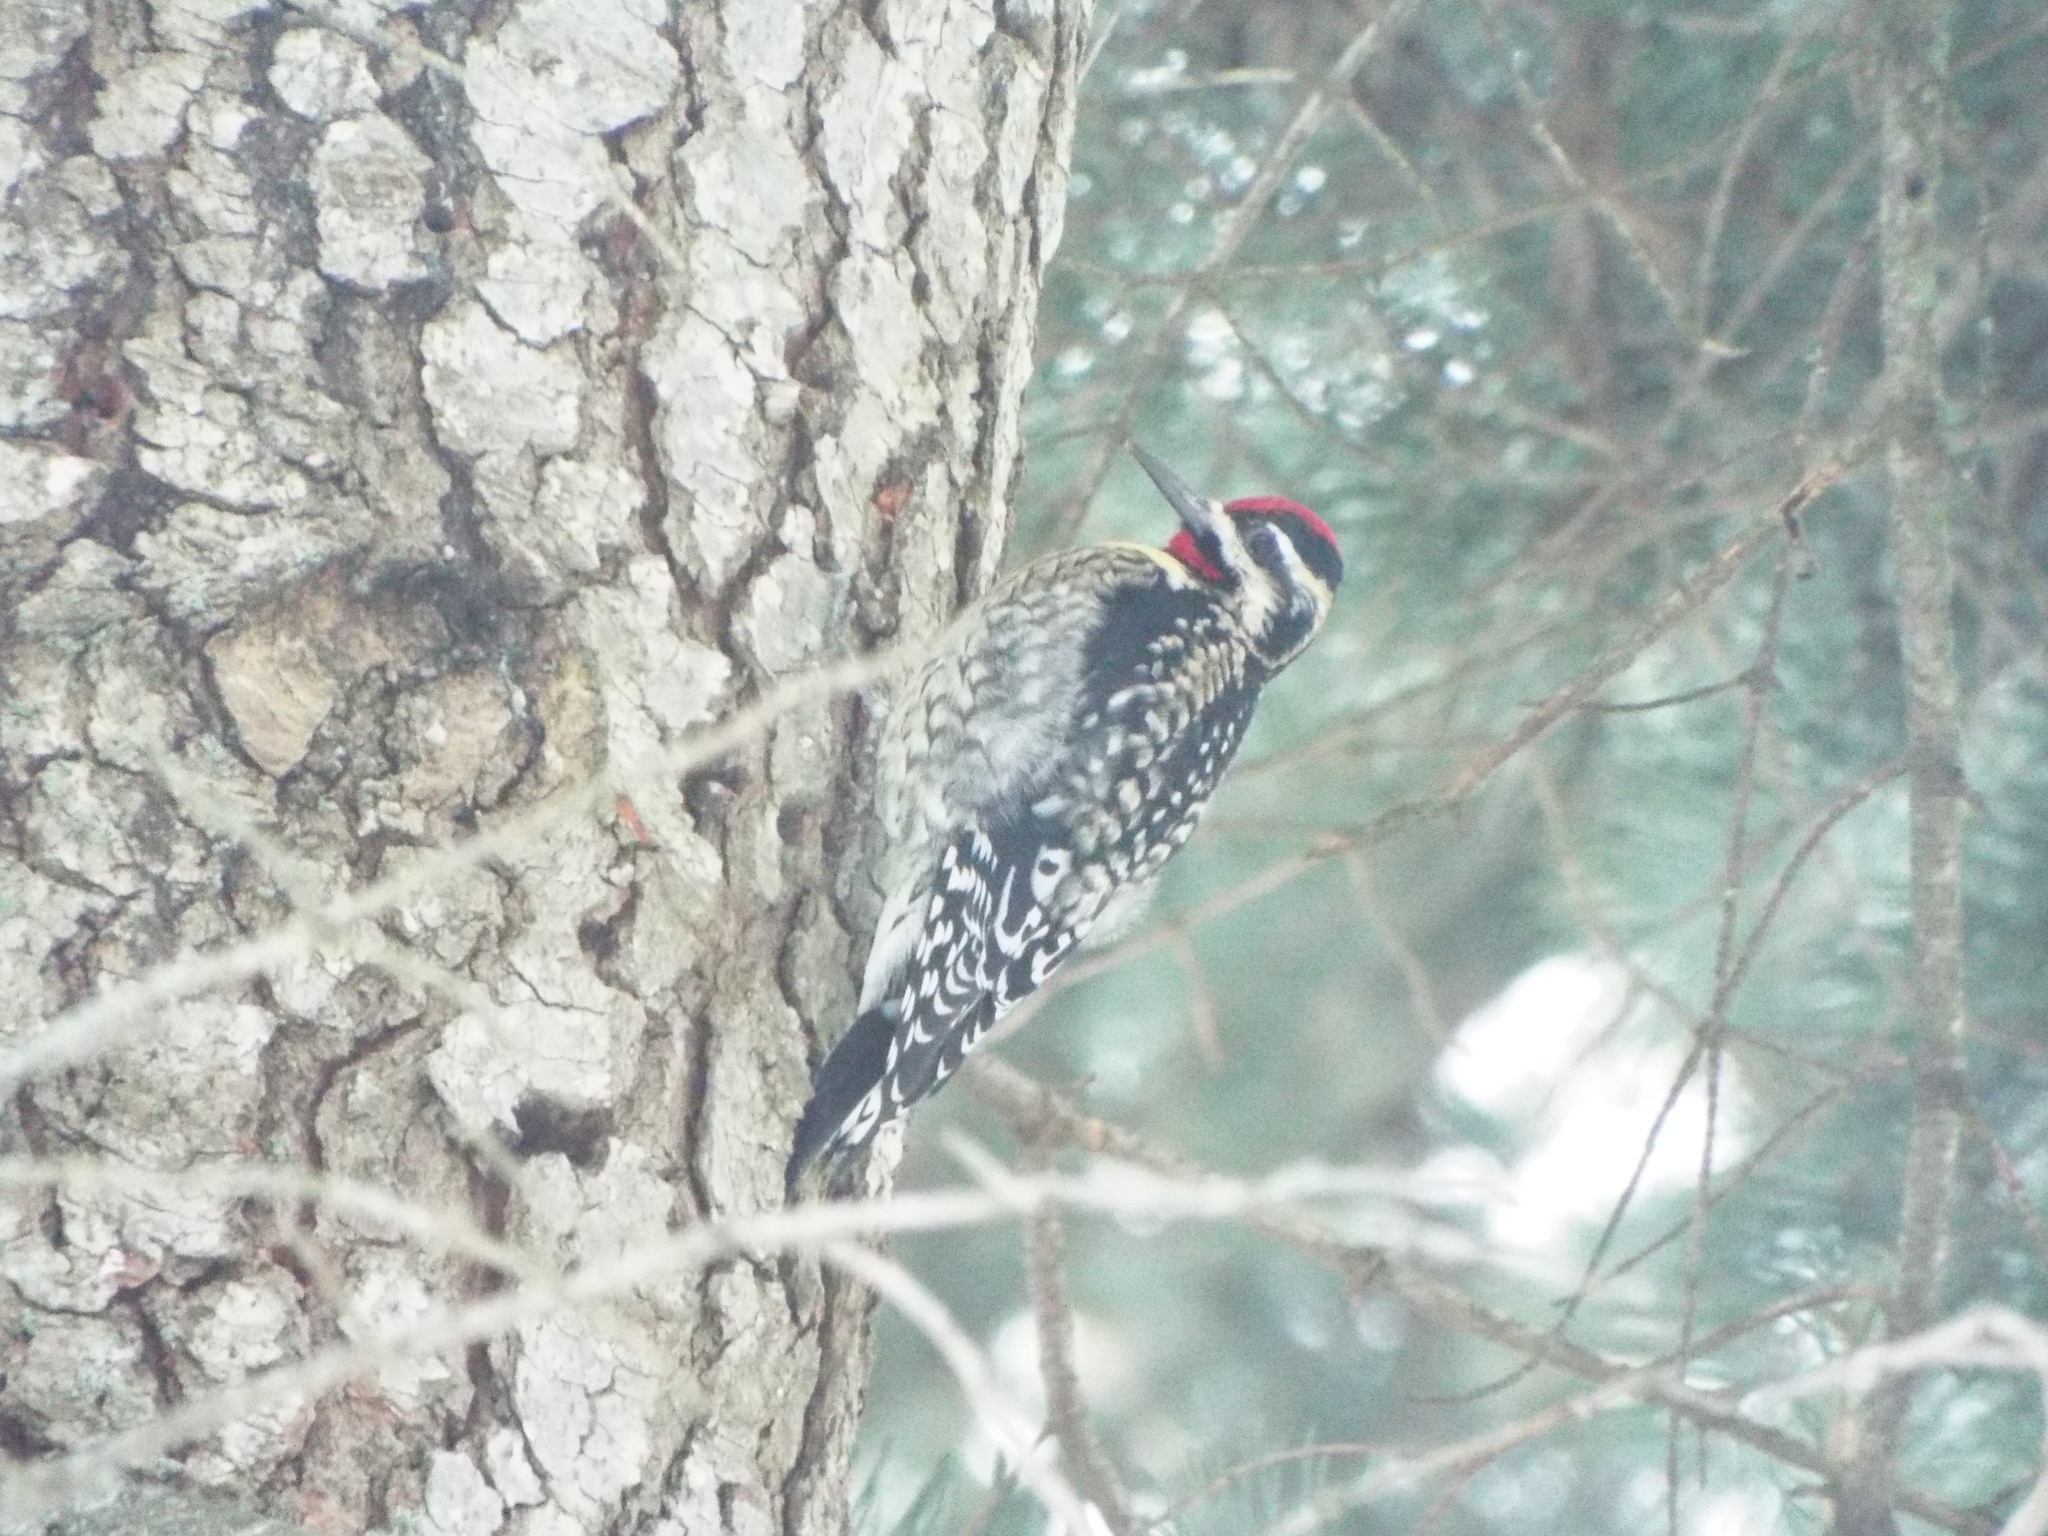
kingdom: Animalia
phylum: Chordata
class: Aves
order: Piciformes
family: Picidae
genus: Sphyrapicus
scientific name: Sphyrapicus varius
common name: Yellow-bellied sapsucker
